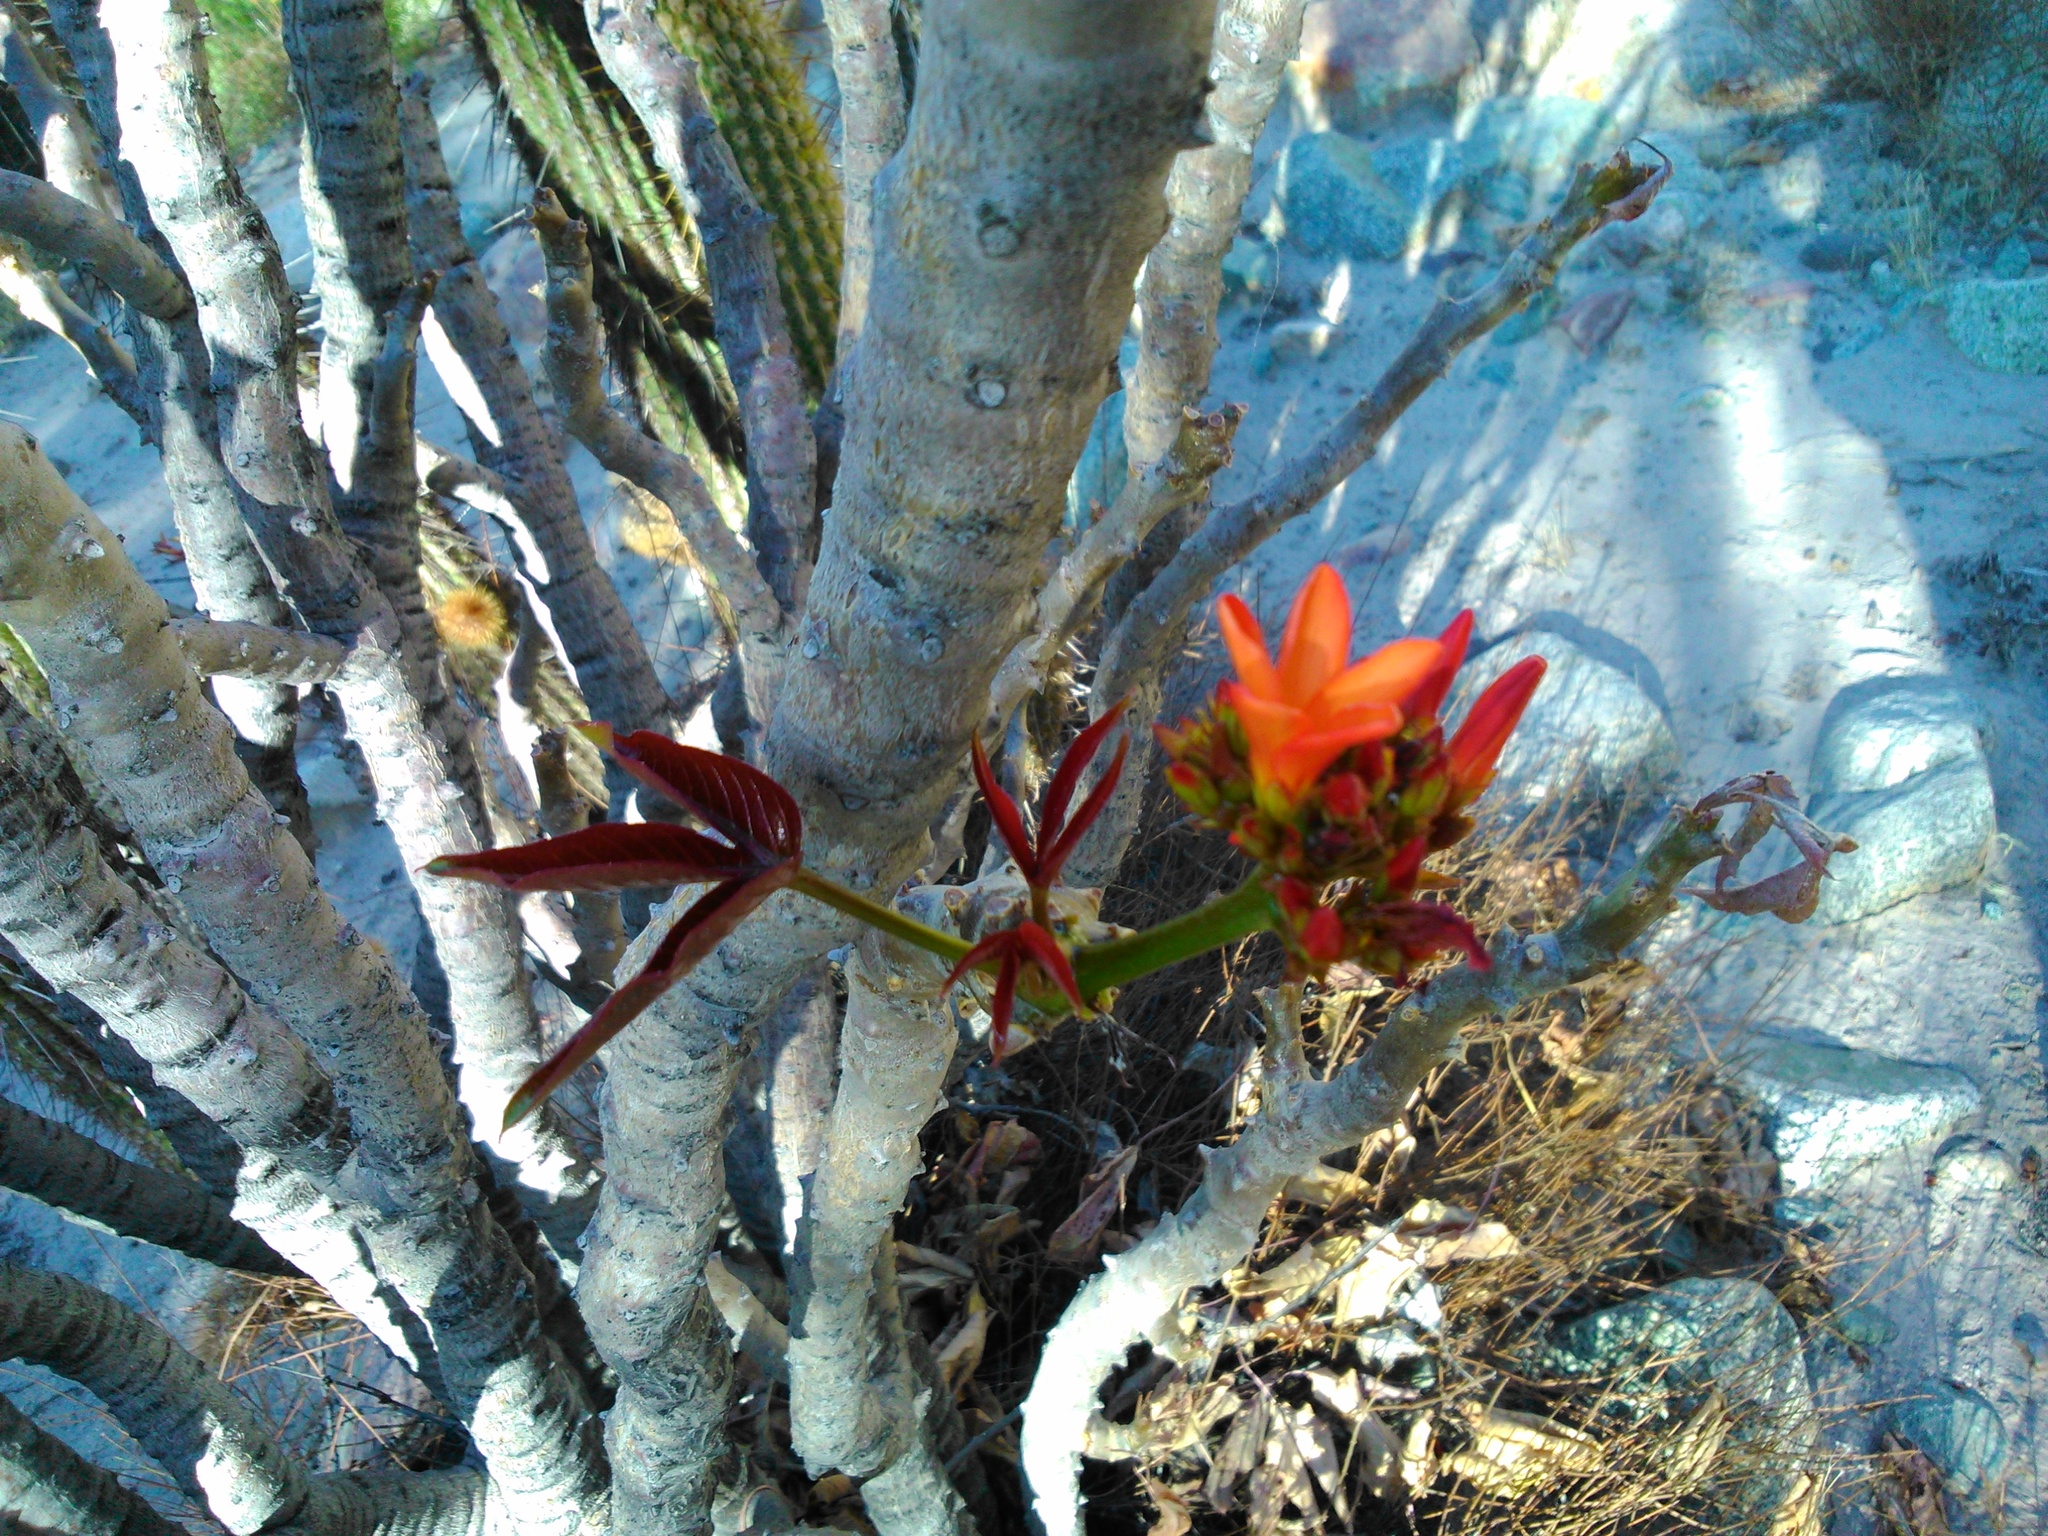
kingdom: Plantae
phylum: Tracheophyta
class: Magnoliopsida
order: Malpighiales
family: Euphorbiaceae
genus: Jatropha
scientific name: Jatropha macrantha
